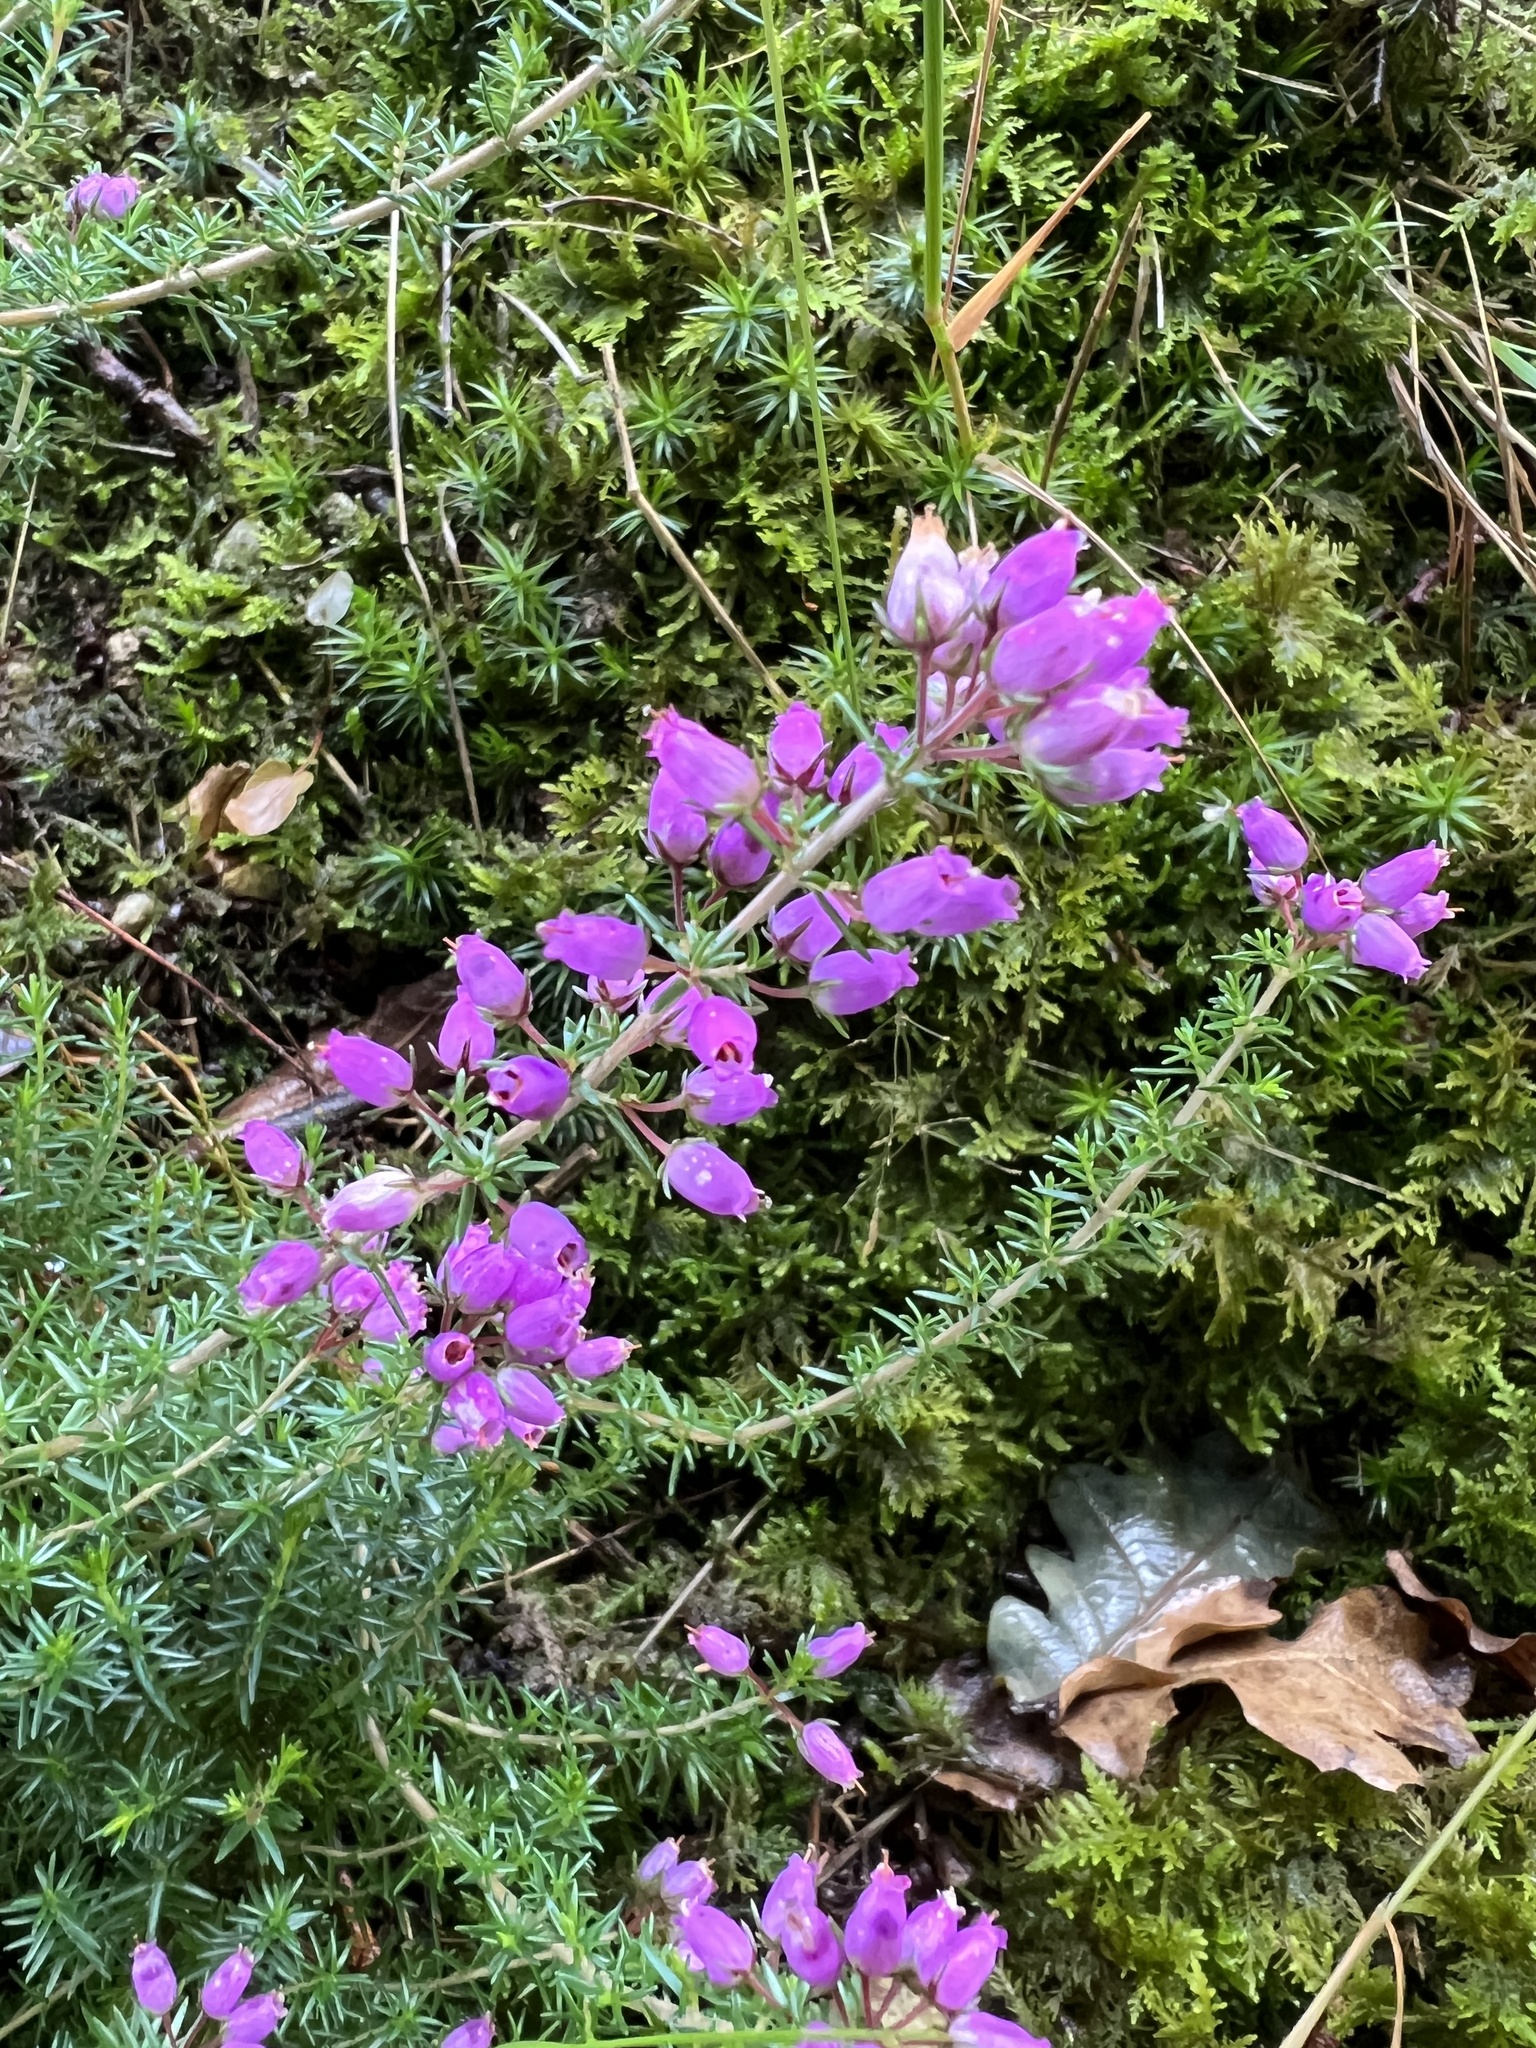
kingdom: Plantae
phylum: Tracheophyta
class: Magnoliopsida
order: Ericales
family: Ericaceae
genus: Erica
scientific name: Erica cinerea
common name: Bell heather
